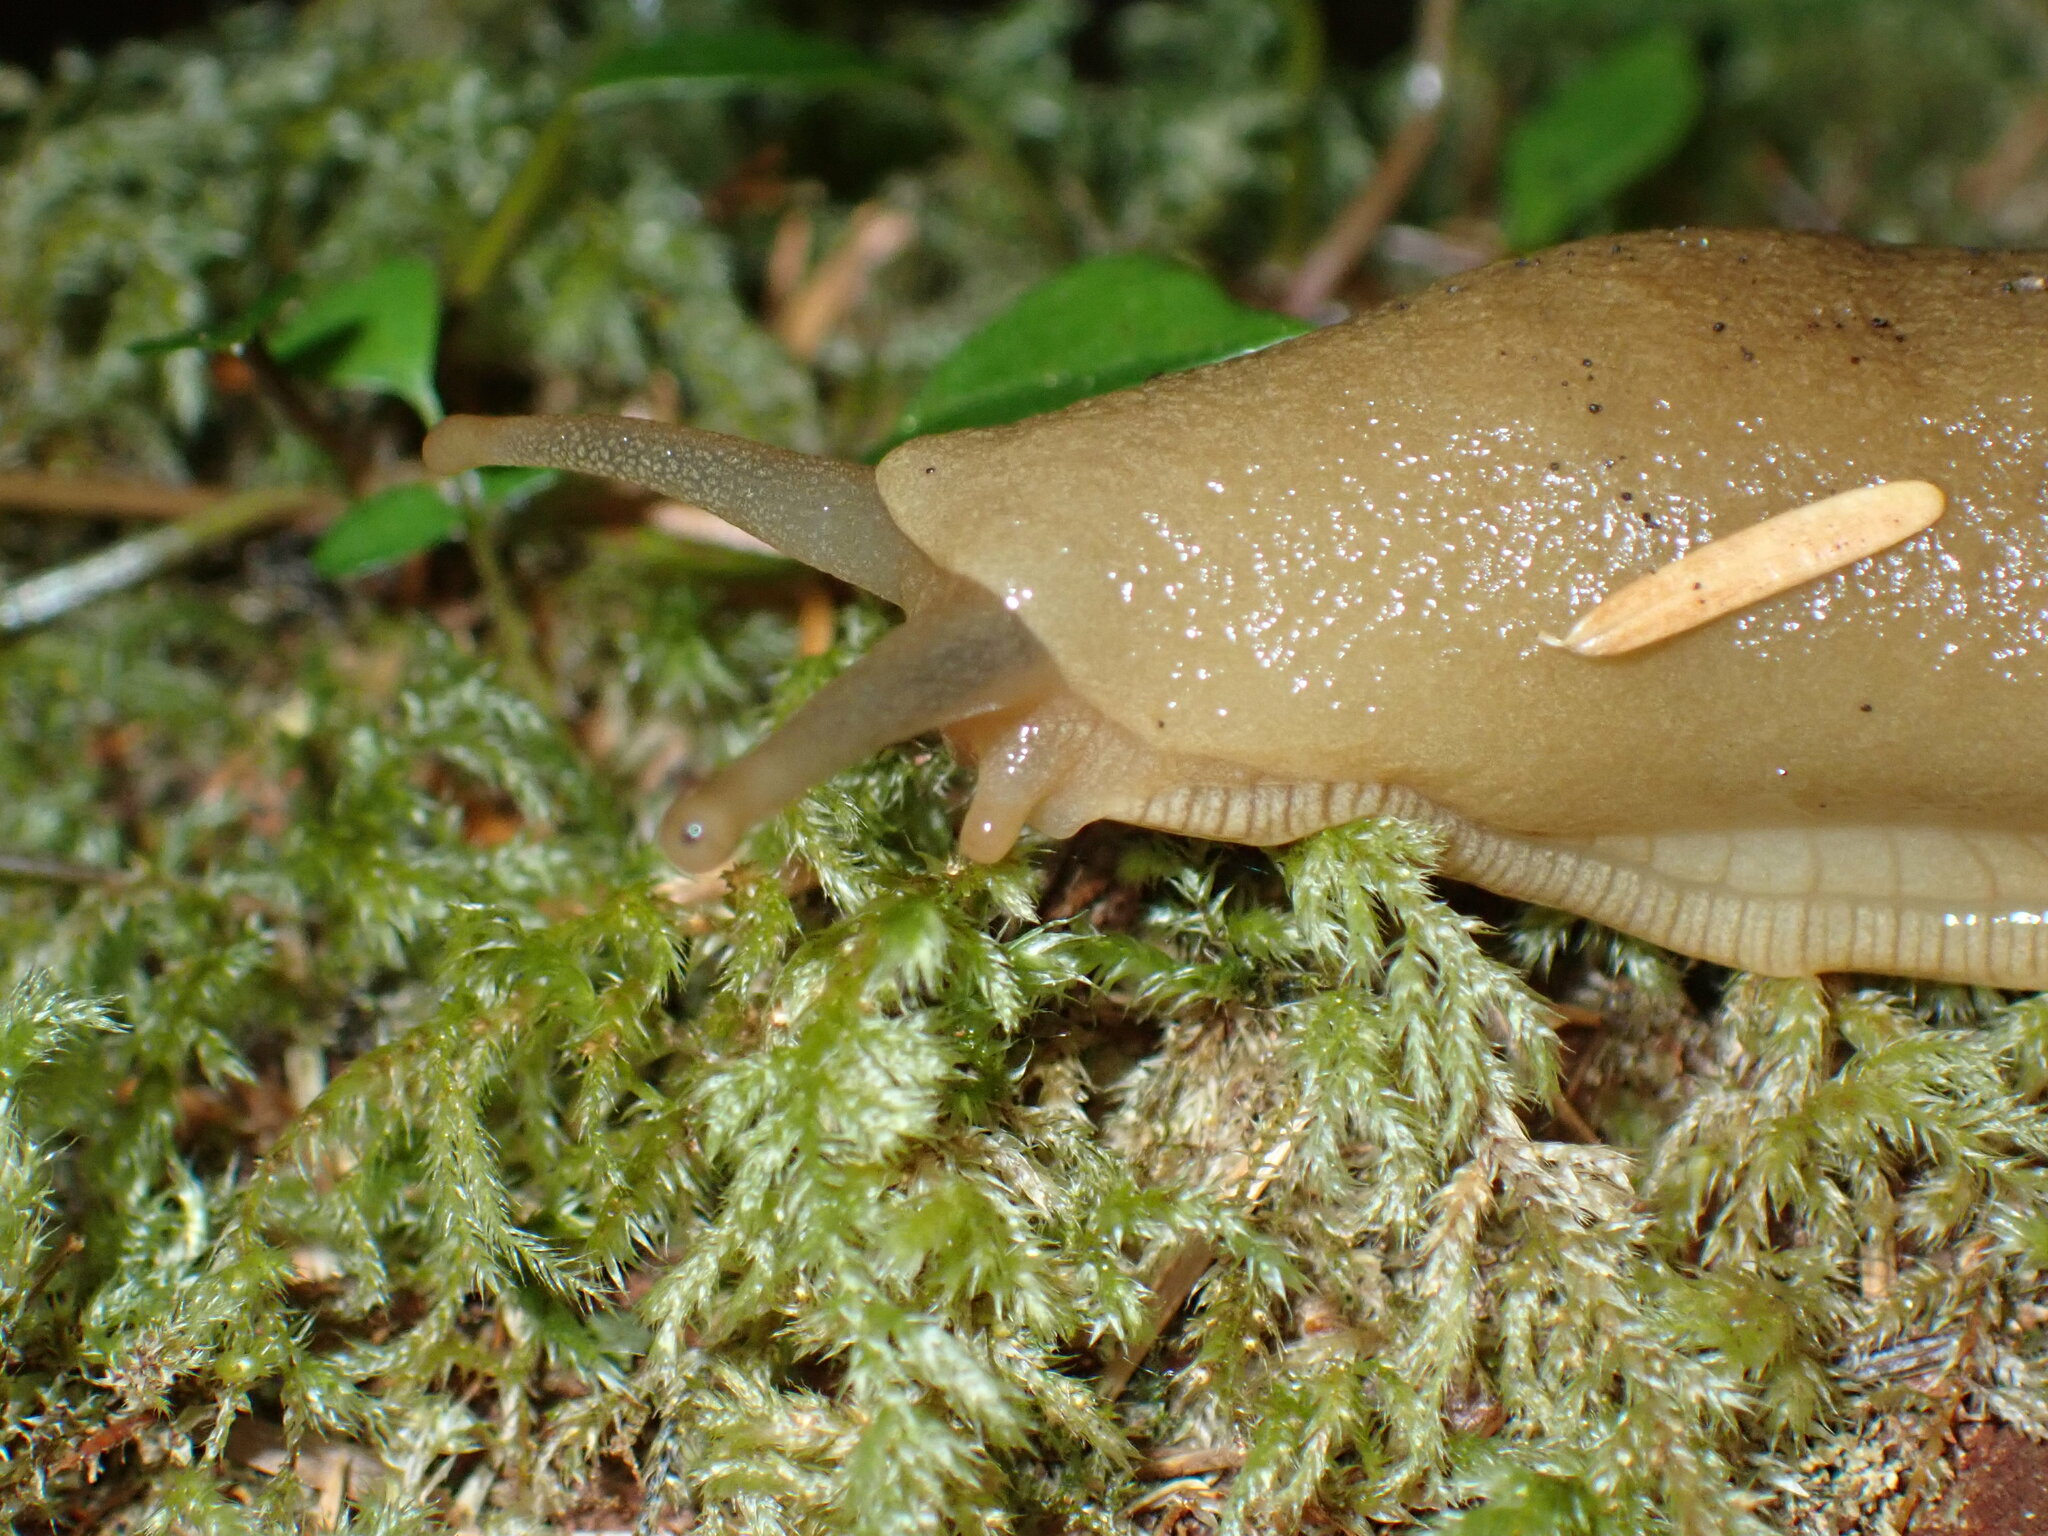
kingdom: Animalia
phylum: Mollusca
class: Gastropoda
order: Stylommatophora
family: Ariolimacidae
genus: Ariolimax
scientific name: Ariolimax columbianus
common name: Pacific banana slug
